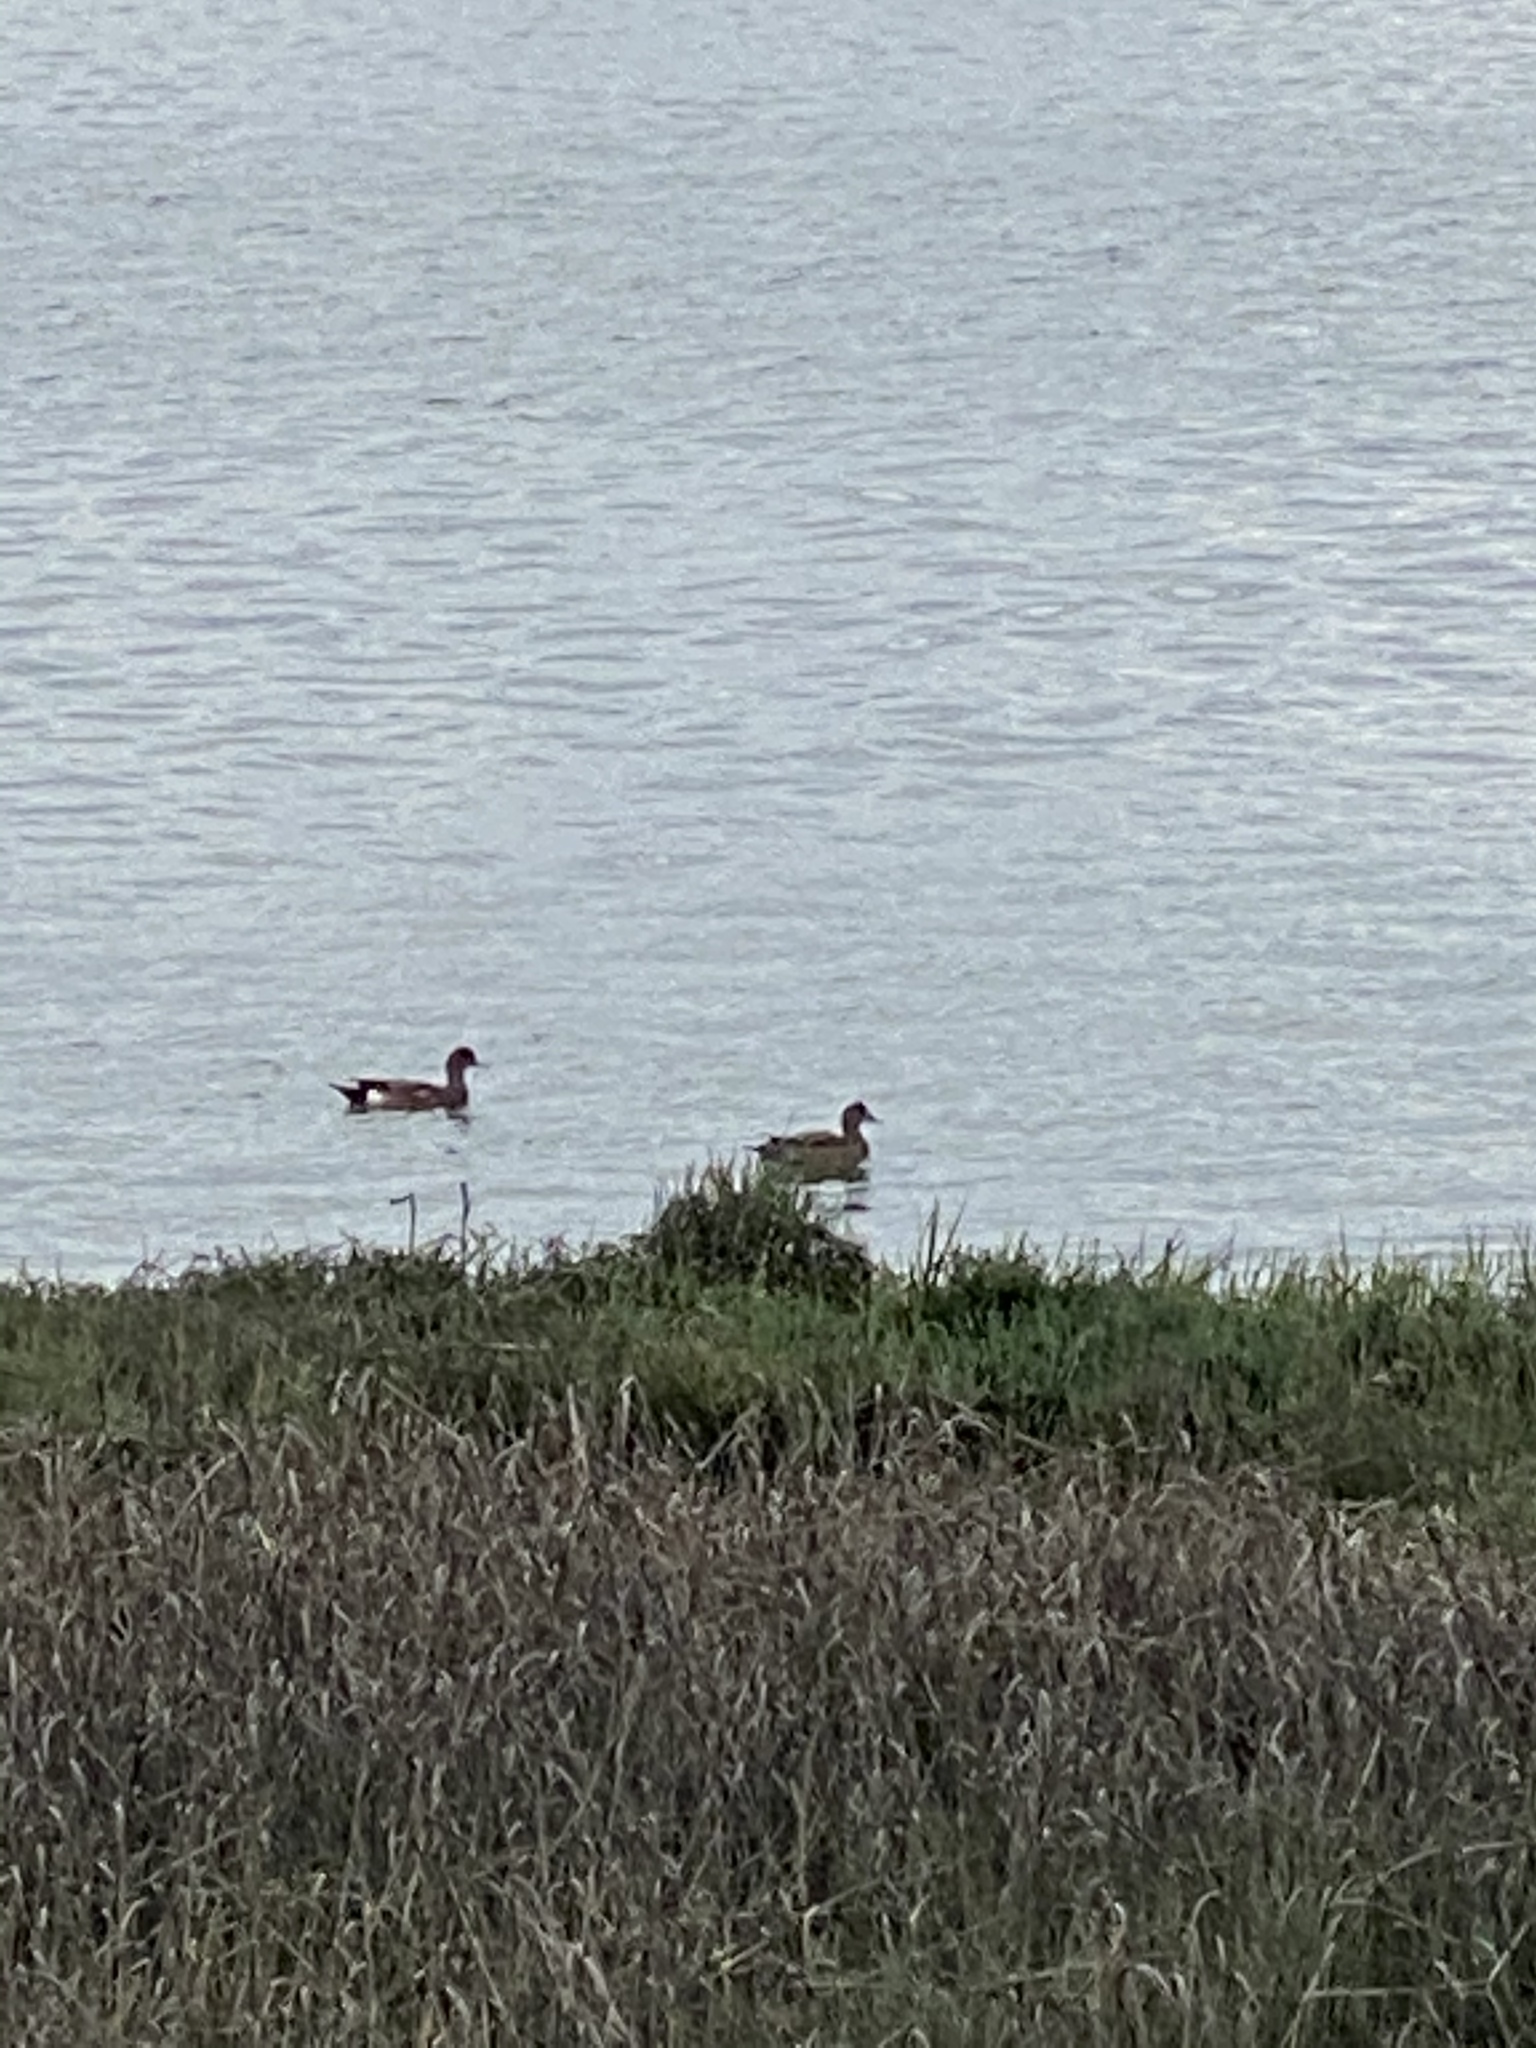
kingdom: Animalia
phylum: Chordata
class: Aves
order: Anseriformes
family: Anatidae
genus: Mareca
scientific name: Mareca americana
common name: American wigeon
